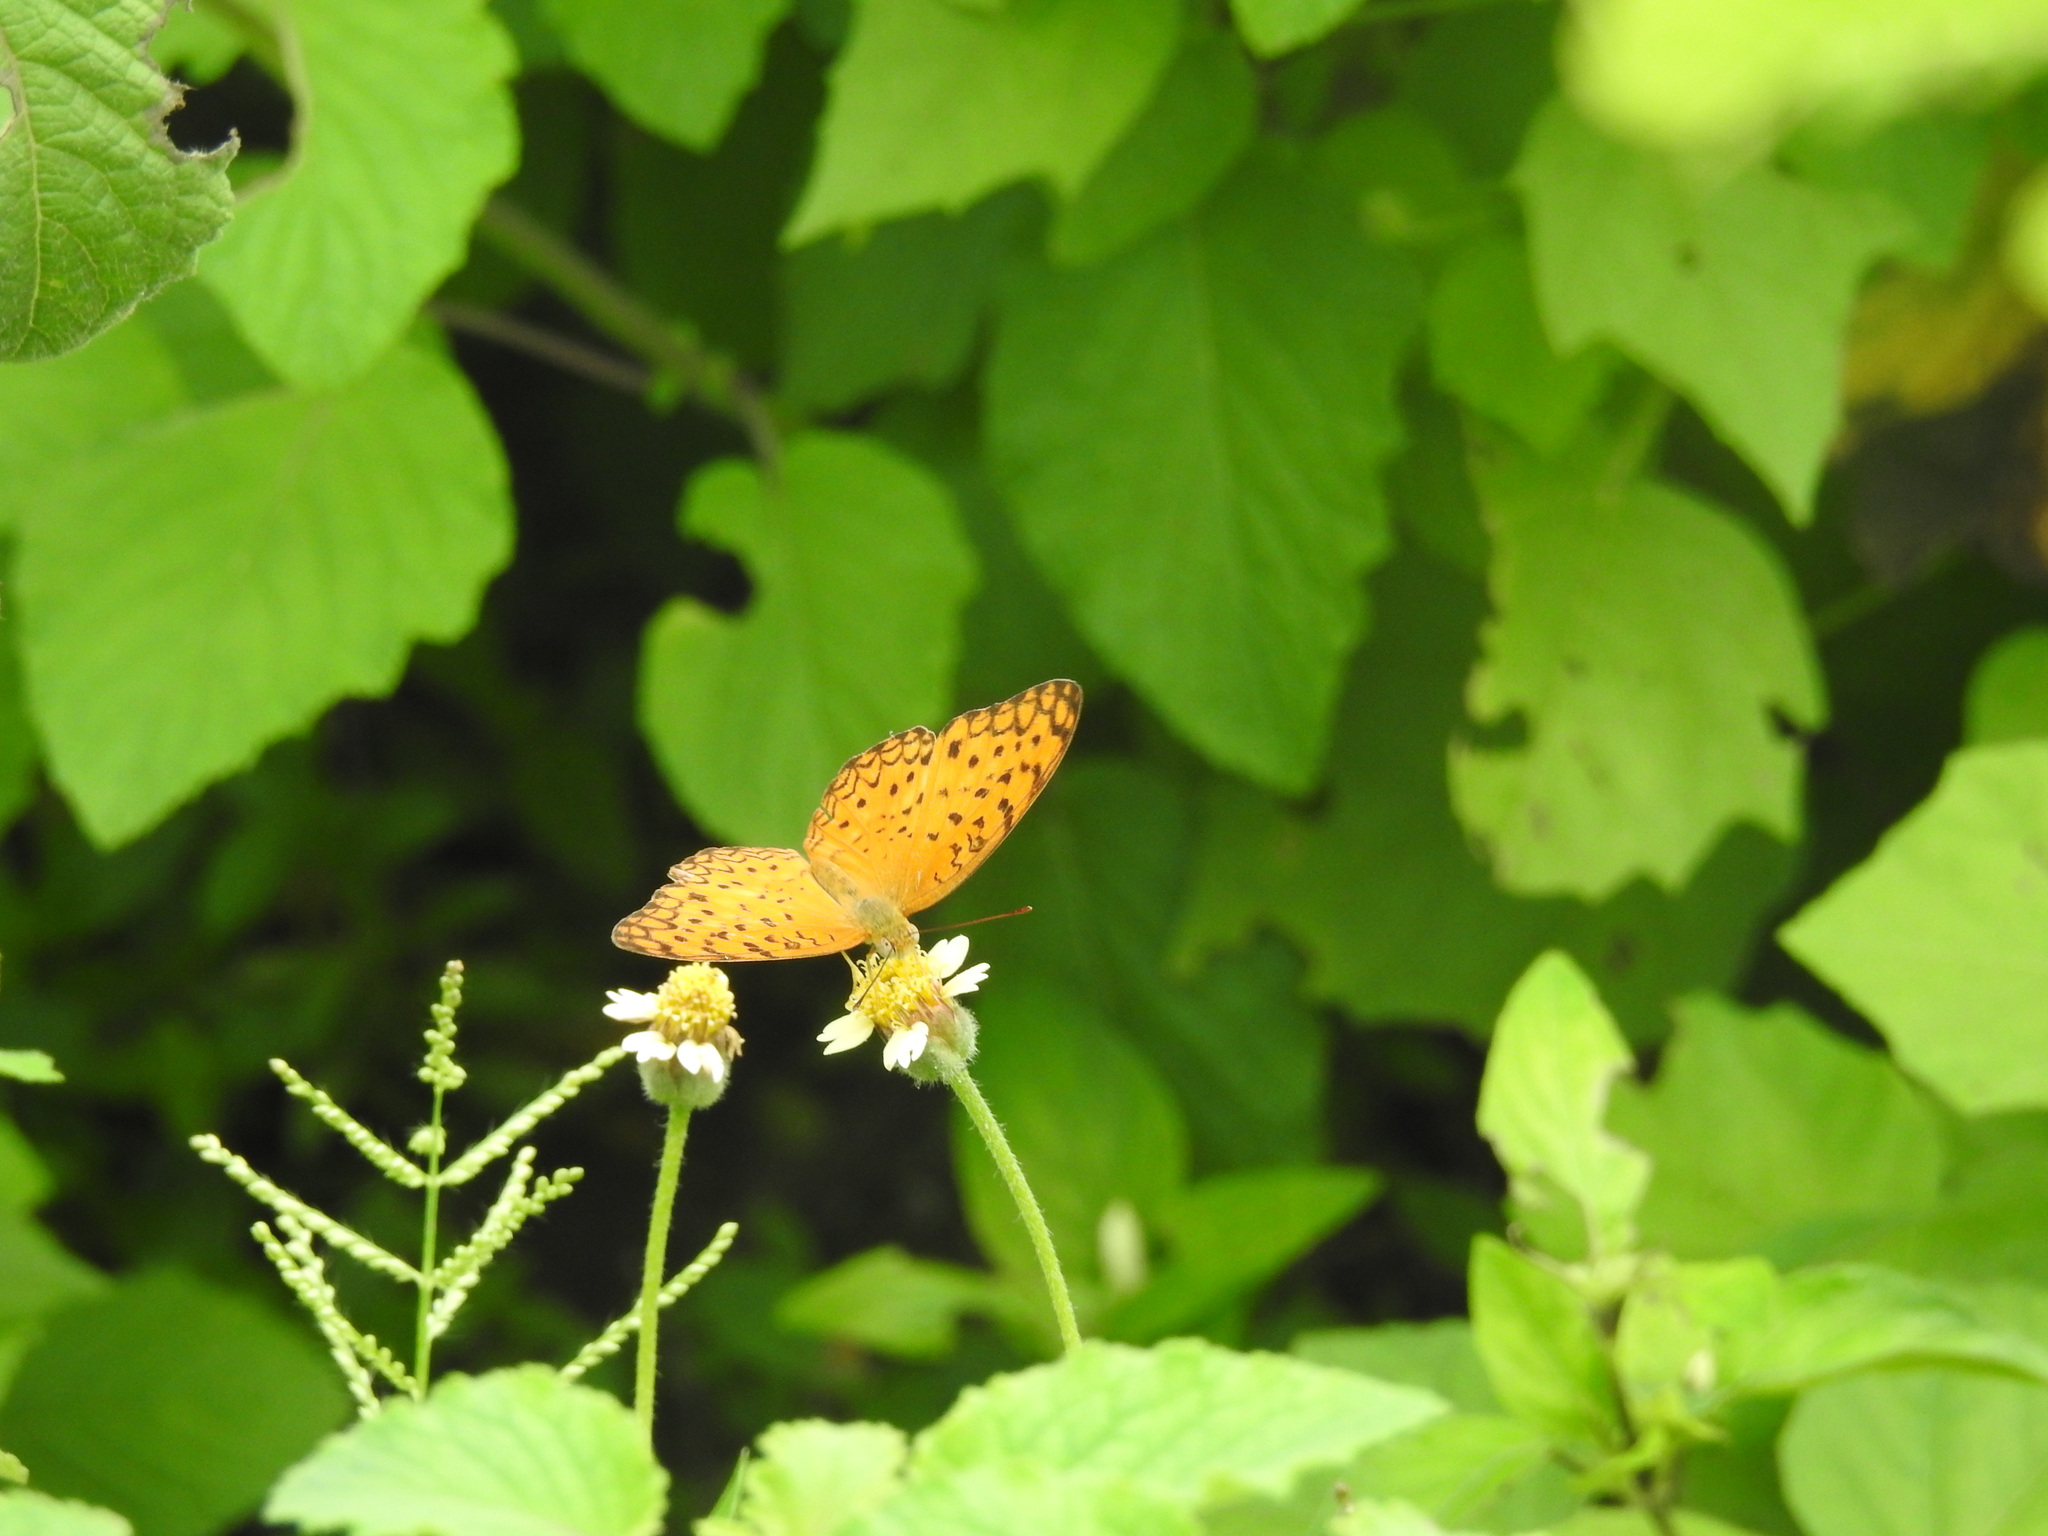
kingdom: Animalia
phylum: Arthropoda
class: Insecta
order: Lepidoptera
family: Nymphalidae
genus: Phalanta
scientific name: Phalanta phalantha
